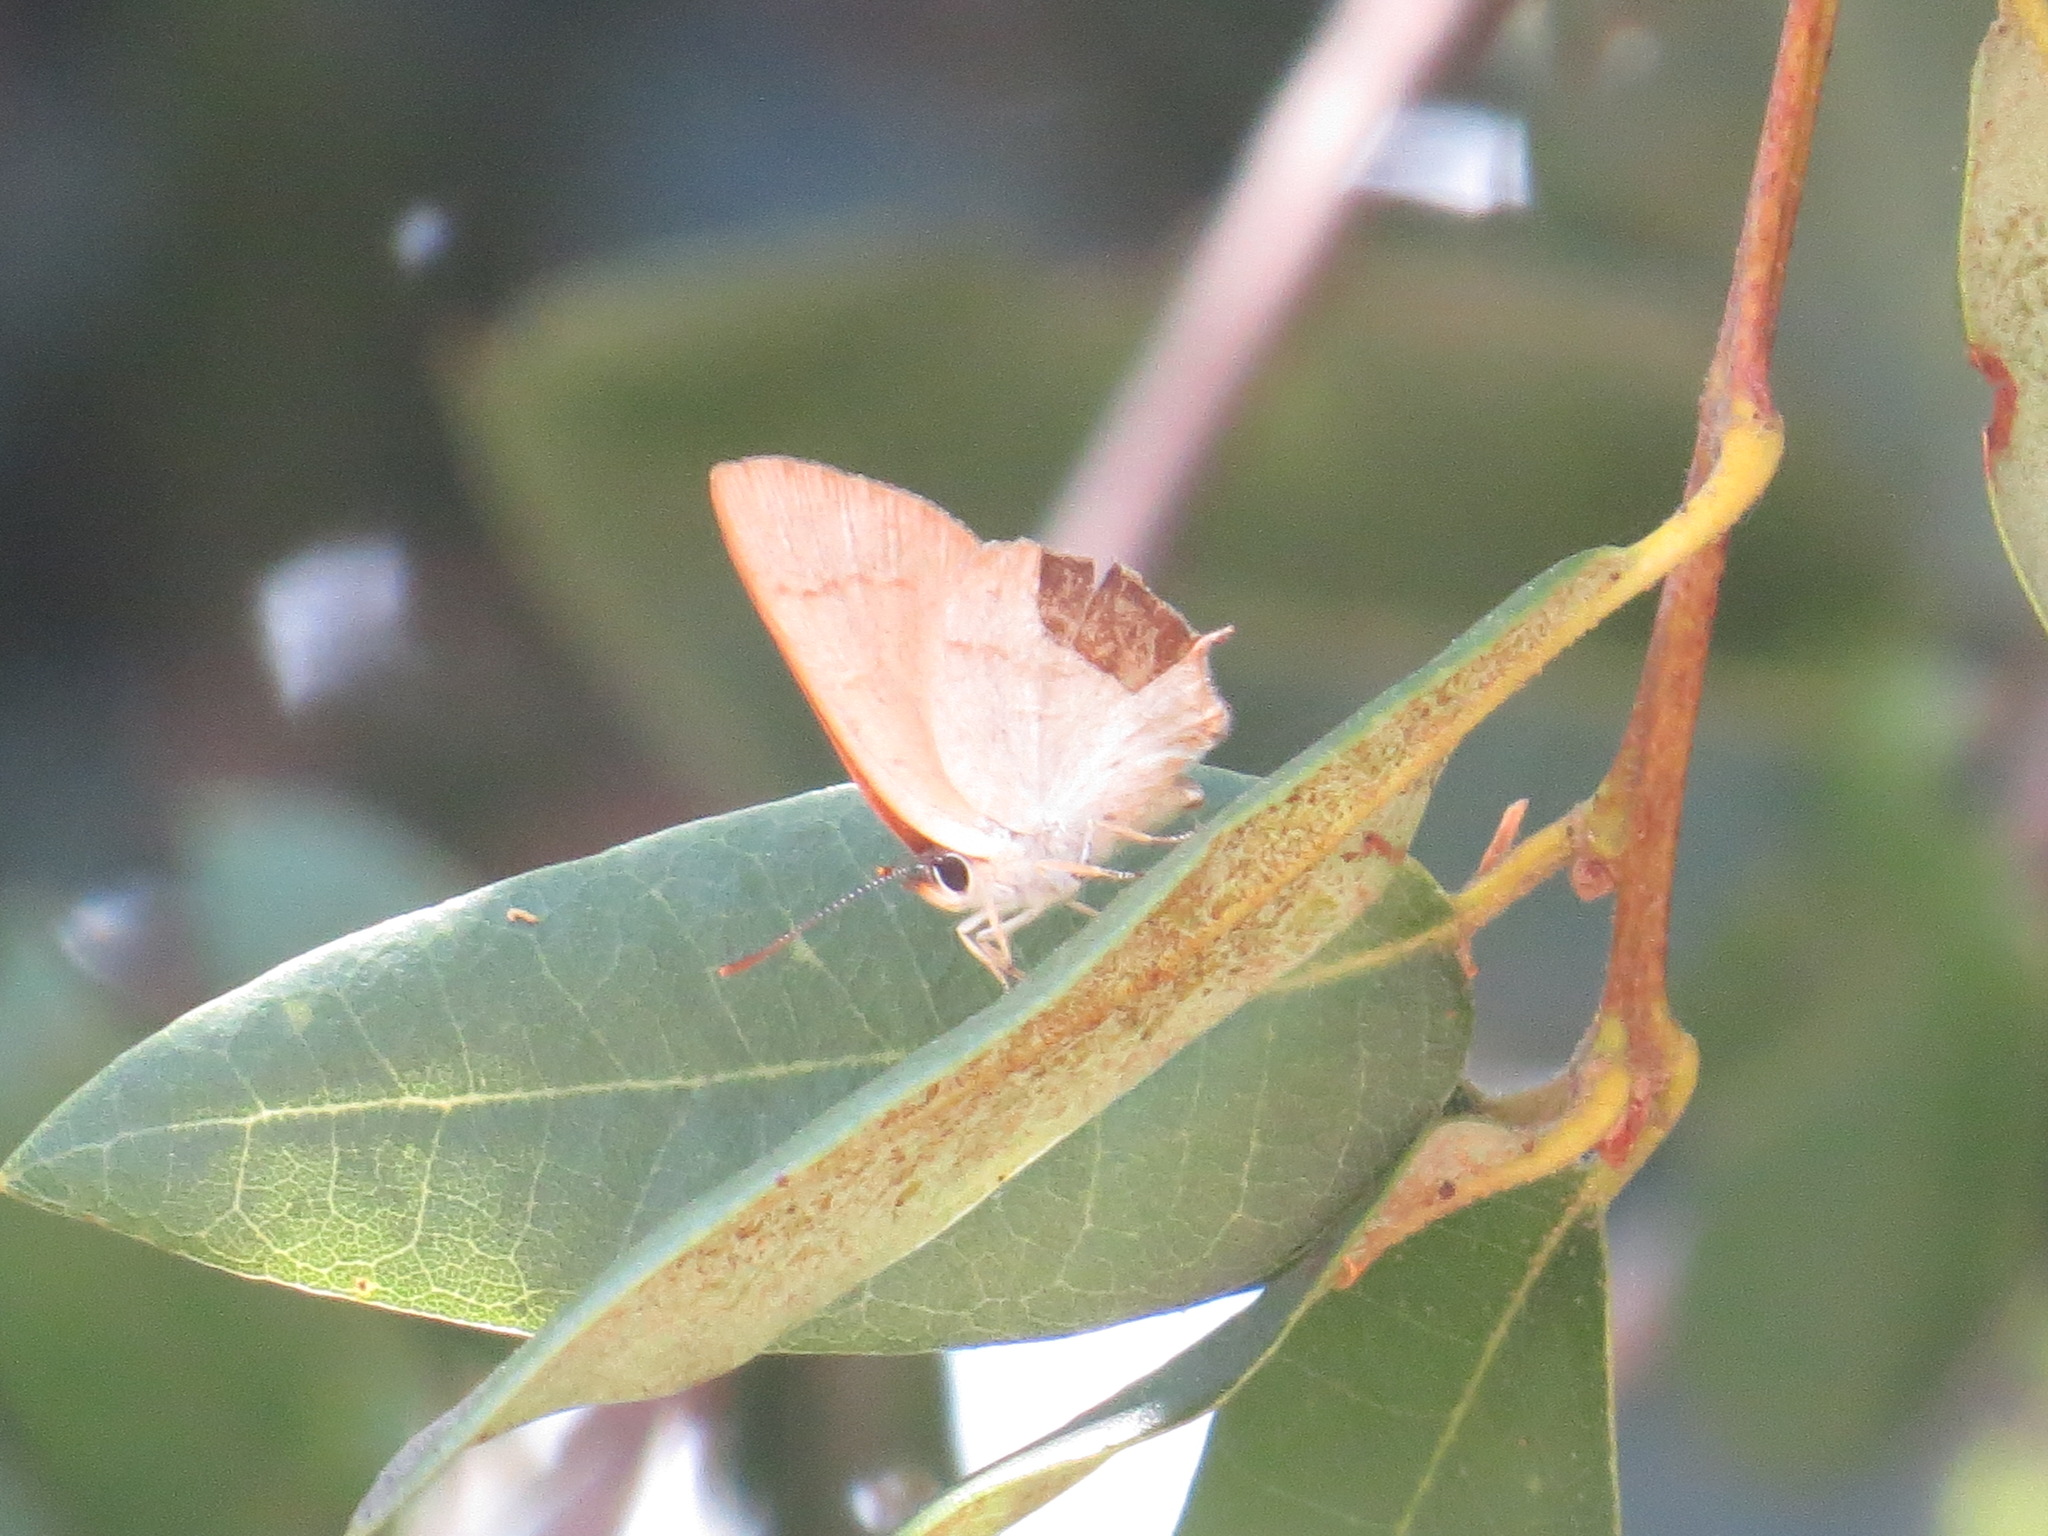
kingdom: Animalia
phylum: Arthropoda
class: Insecta
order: Lepidoptera
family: Lycaenidae
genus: Habrodais
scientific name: Habrodais grunus
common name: Golden hairstreak
